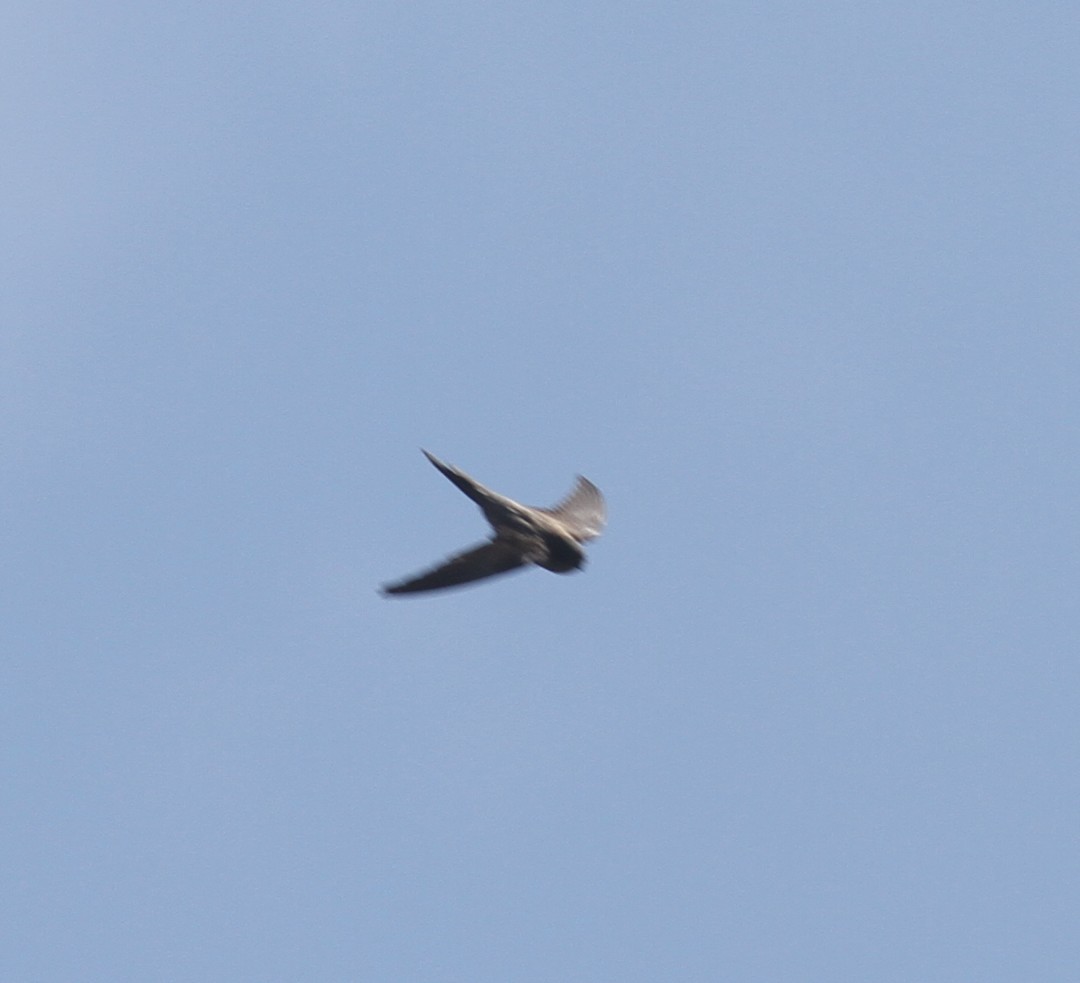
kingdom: Animalia
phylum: Chordata
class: Aves
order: Apodiformes
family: Apodidae
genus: Cypsiurus
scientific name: Cypsiurus balasiensis
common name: Asian palm swift
